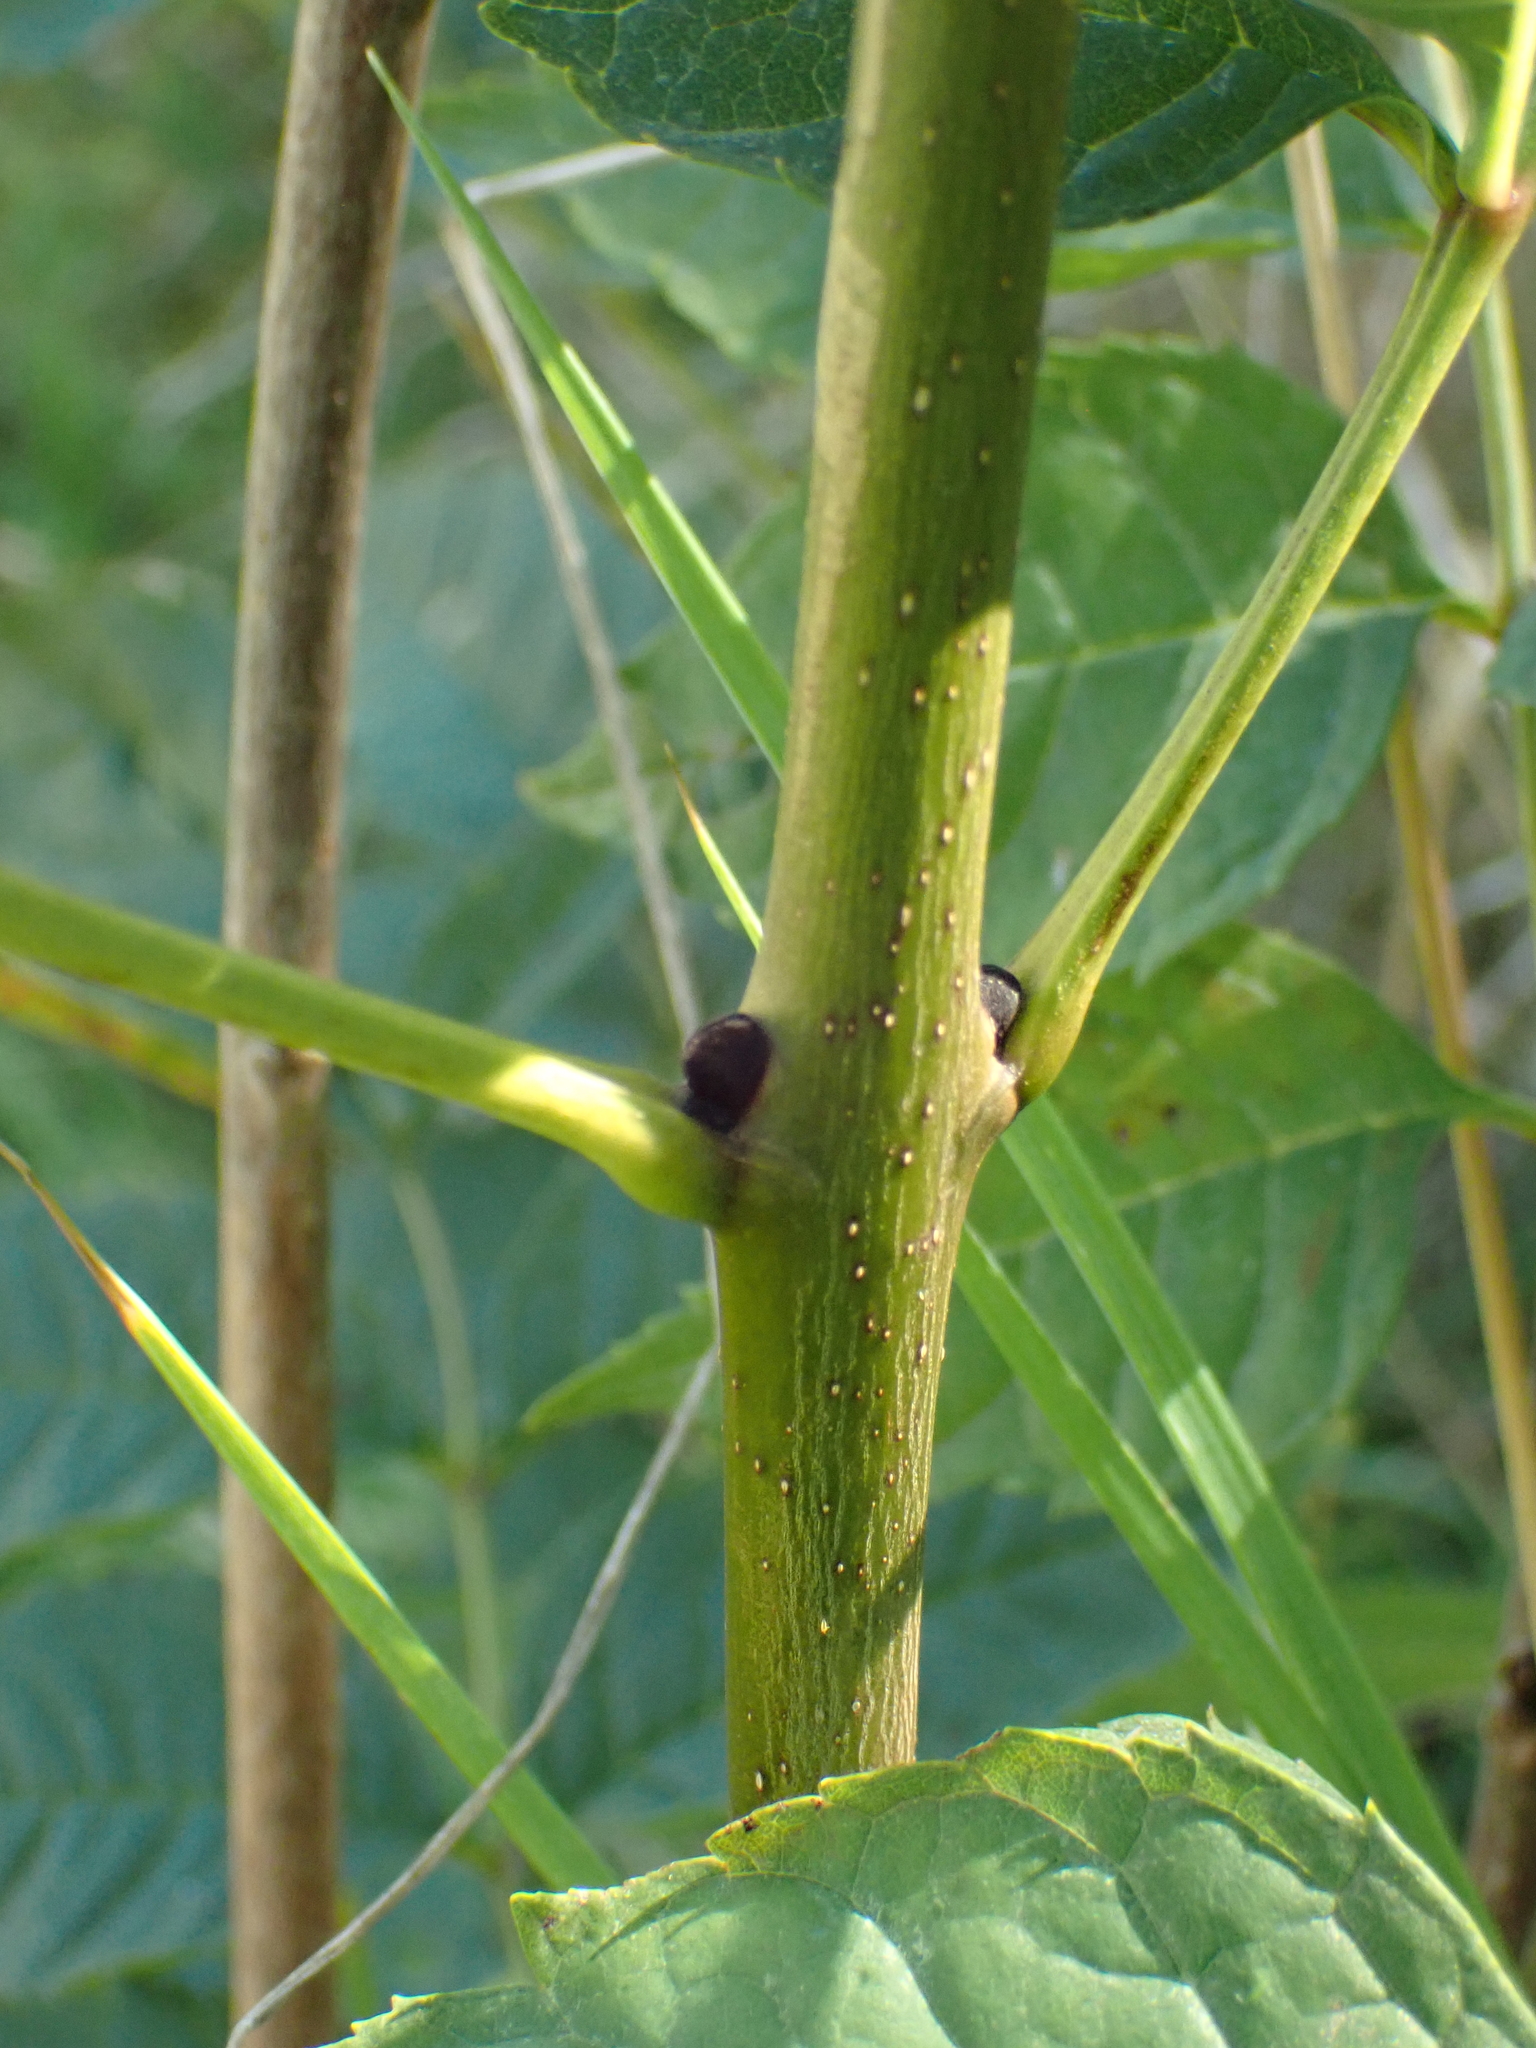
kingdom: Plantae
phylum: Tracheophyta
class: Magnoliopsida
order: Lamiales
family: Oleaceae
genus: Fraxinus
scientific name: Fraxinus excelsior
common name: European ash
